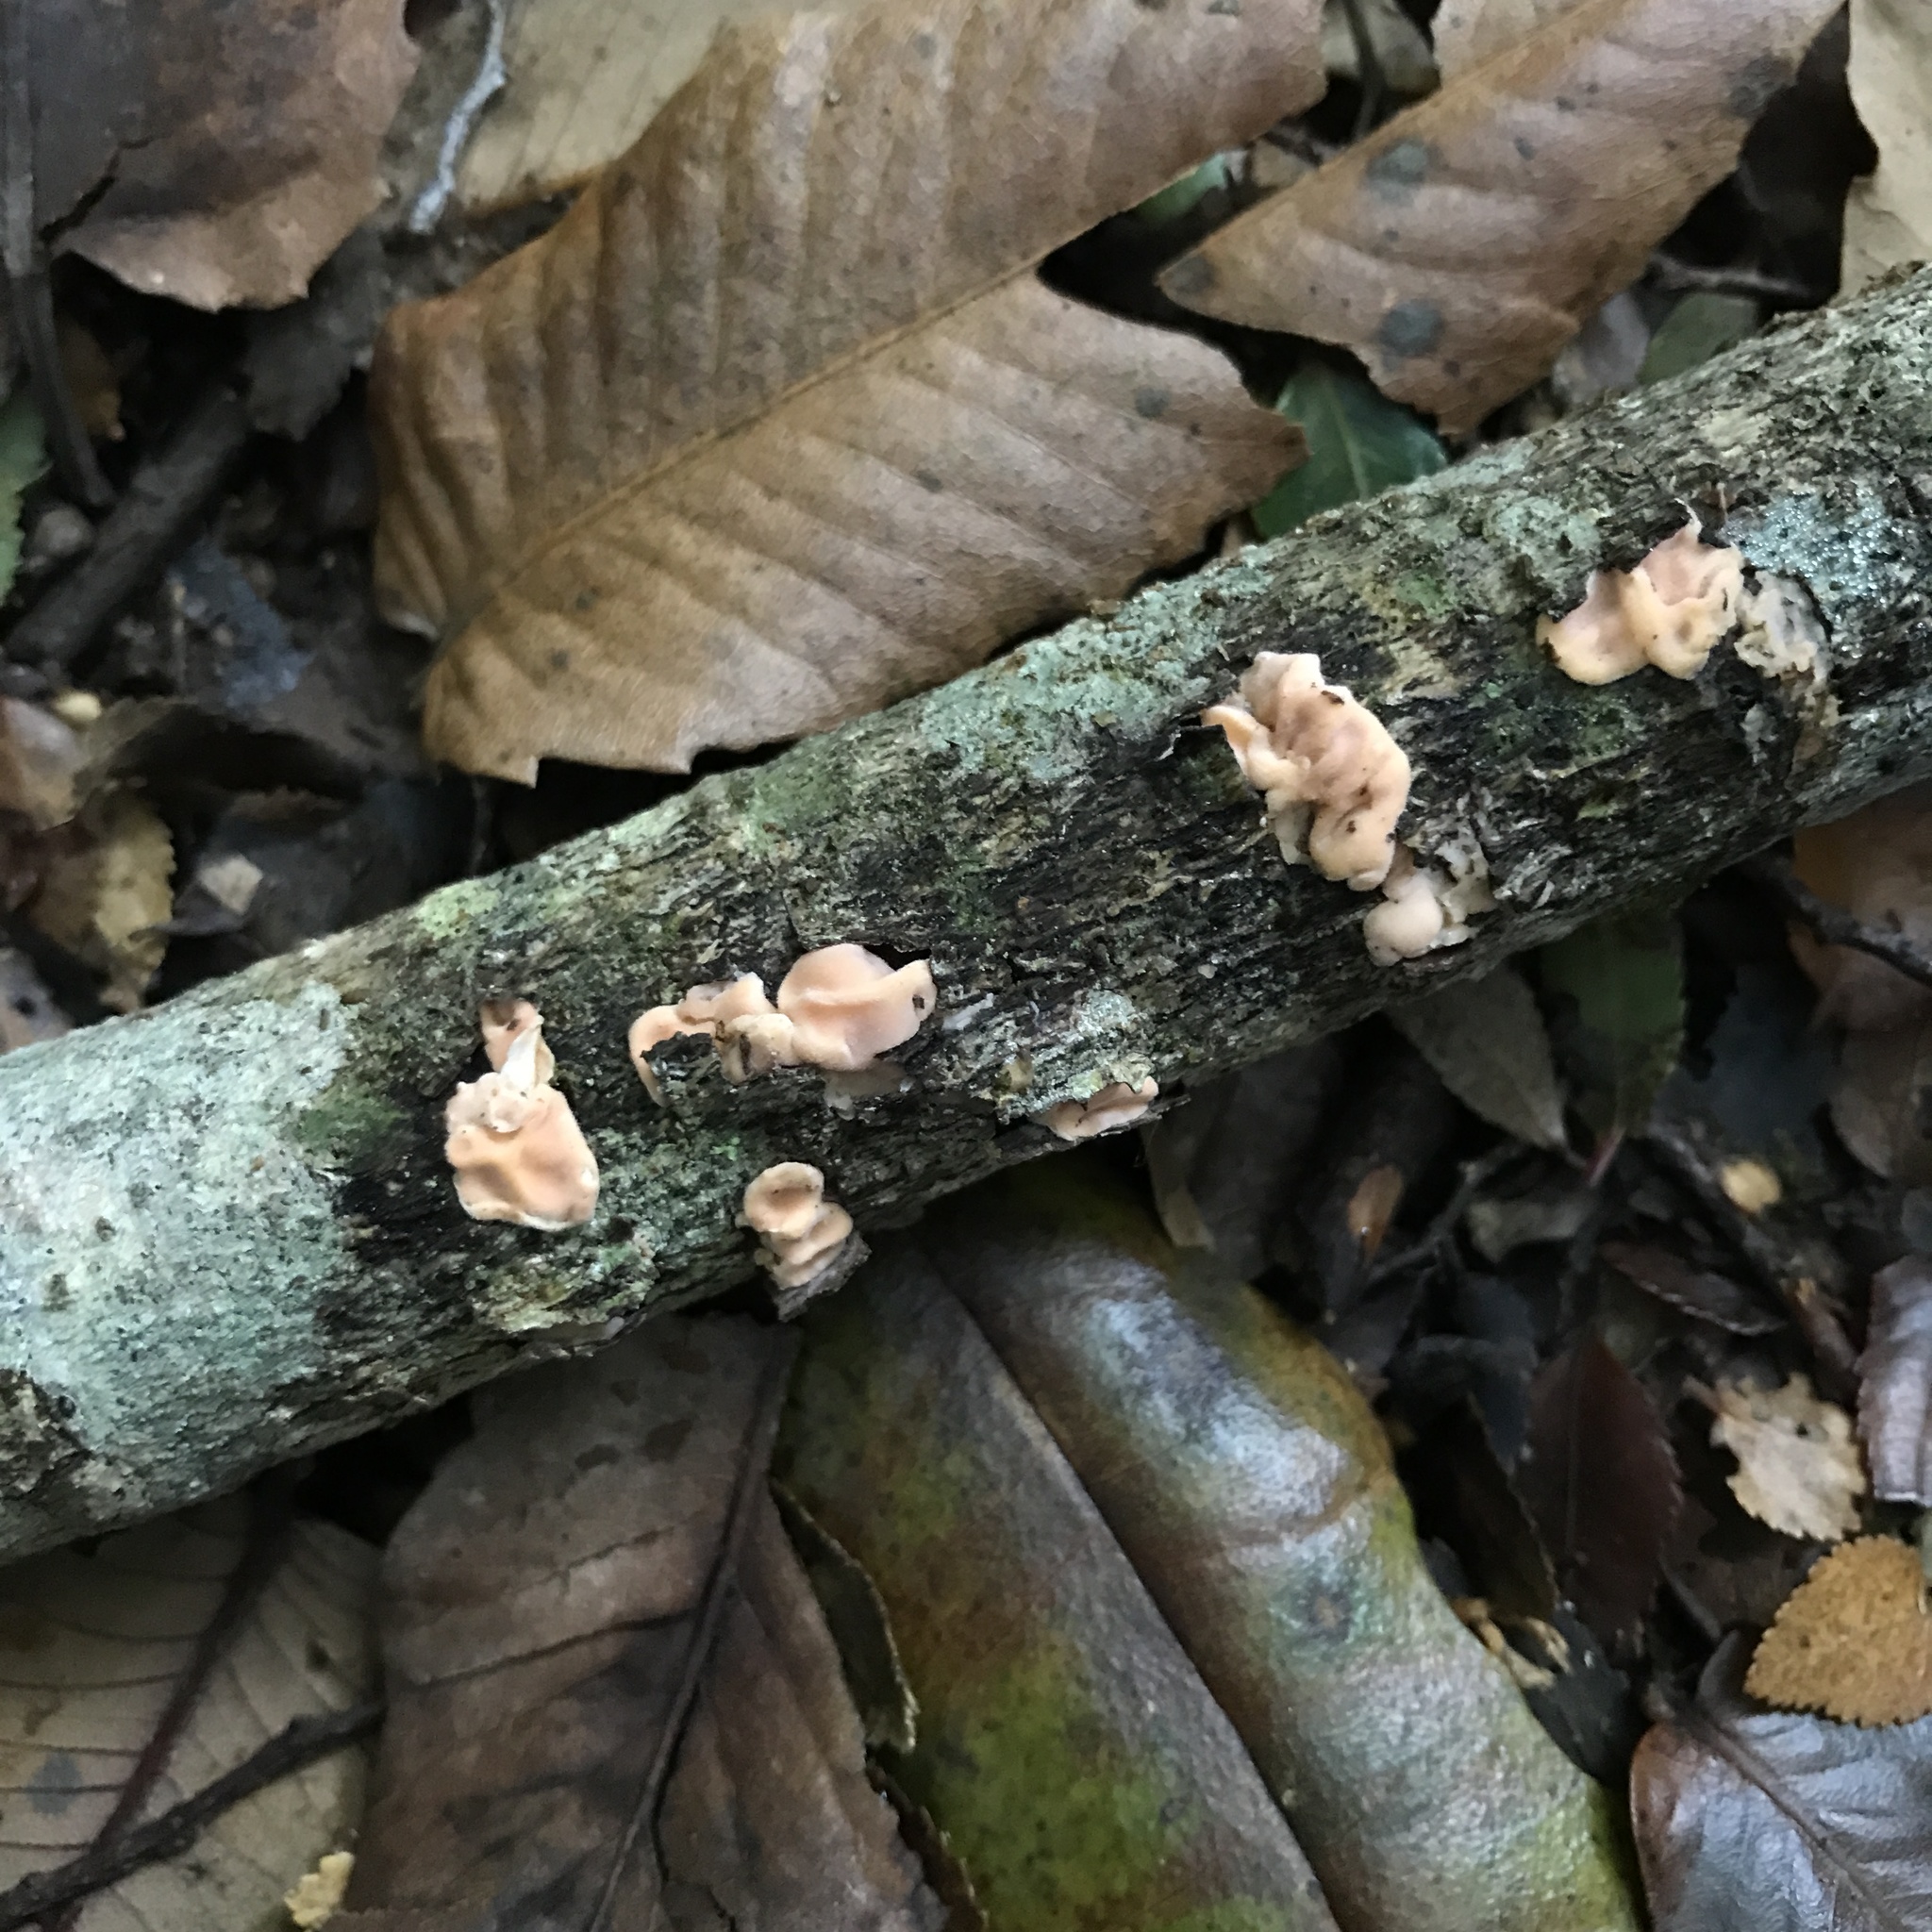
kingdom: Fungi
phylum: Basidiomycota
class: Agaricomycetes
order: Russulales
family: Stereaceae
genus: Gloeosoma
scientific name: Gloeosoma decorticans
